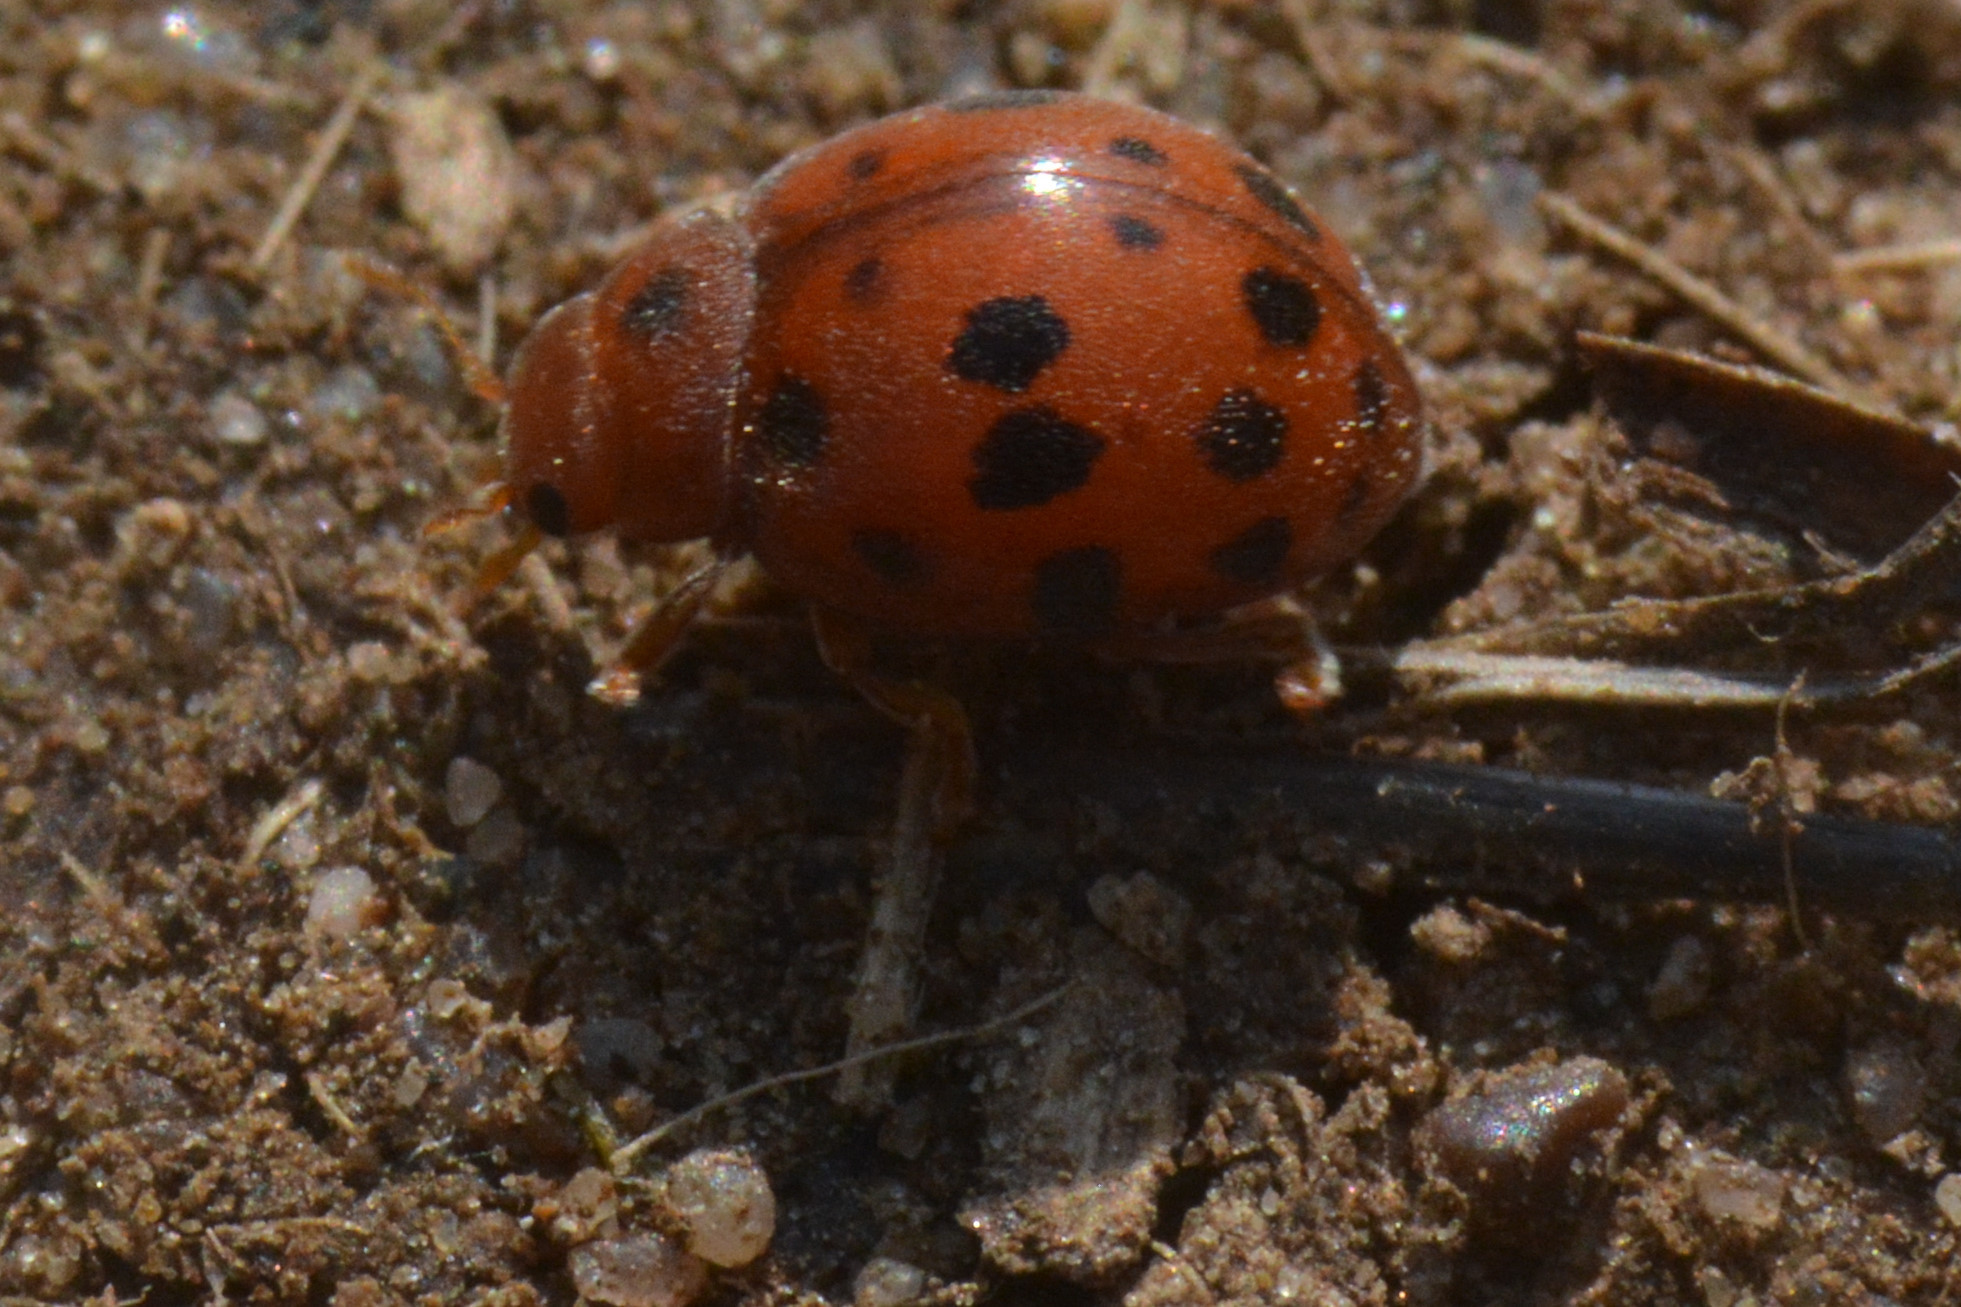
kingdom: Animalia
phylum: Arthropoda
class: Insecta
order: Coleoptera
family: Coccinellidae
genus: Subcoccinella
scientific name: Subcoccinella vigintiquatuorpunctata
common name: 24-spot ladybird
